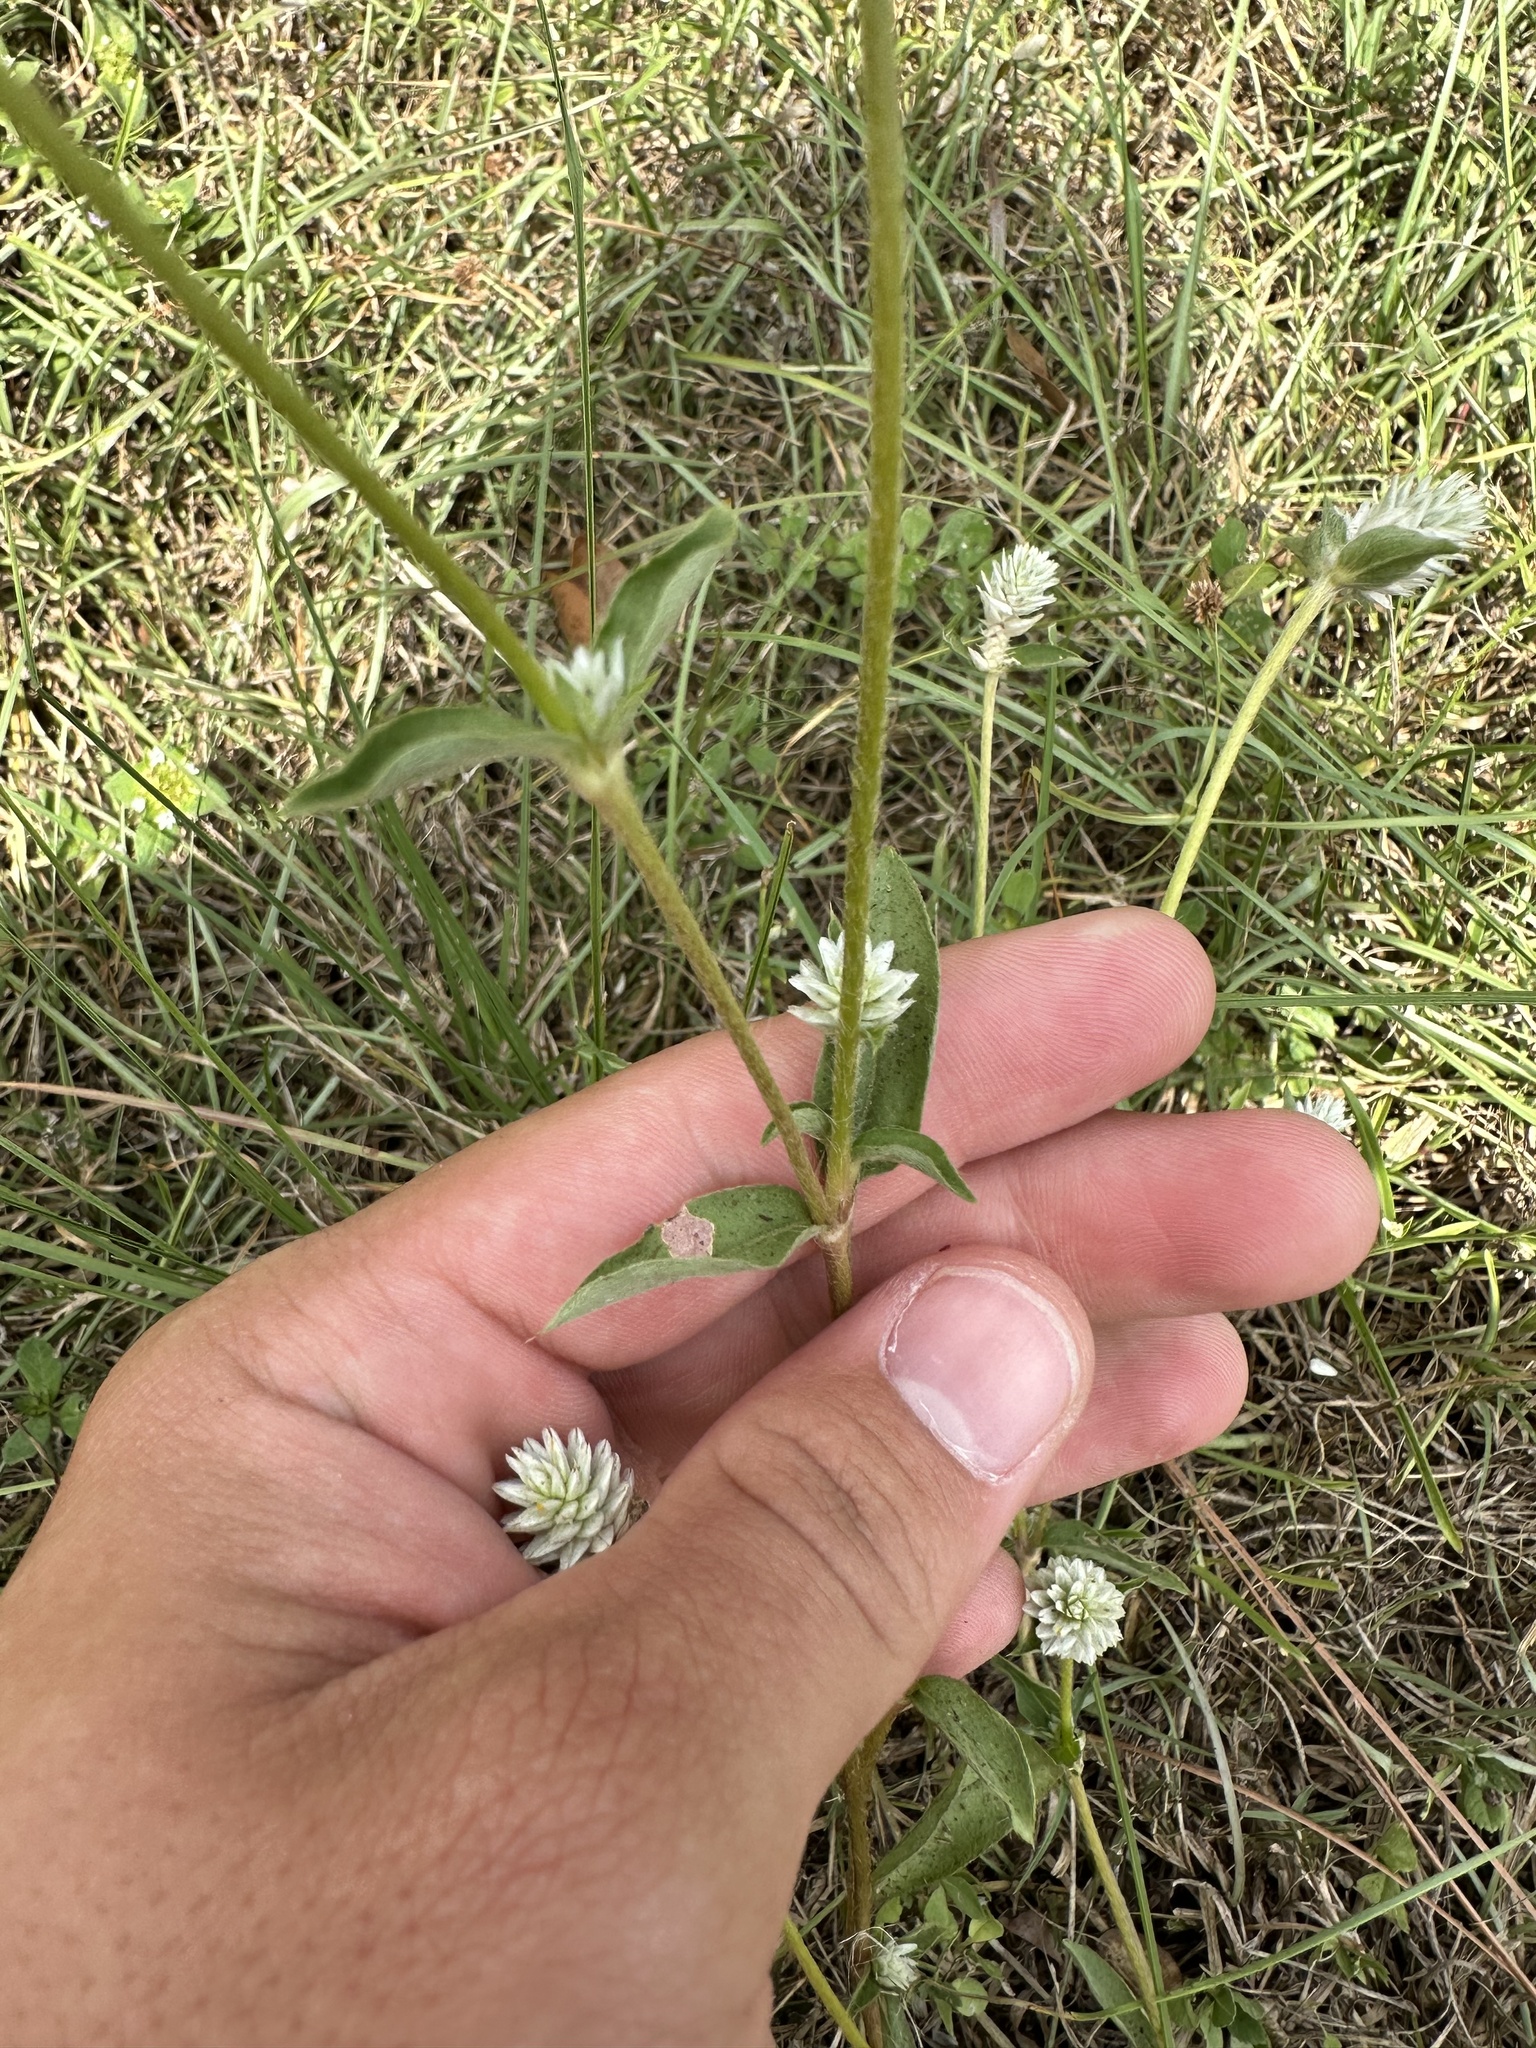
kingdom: Plantae
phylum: Tracheophyta
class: Magnoliopsida
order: Caryophyllales
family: Amaranthaceae
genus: Gomphrena
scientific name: Gomphrena serrata
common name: Arrasa con todo
